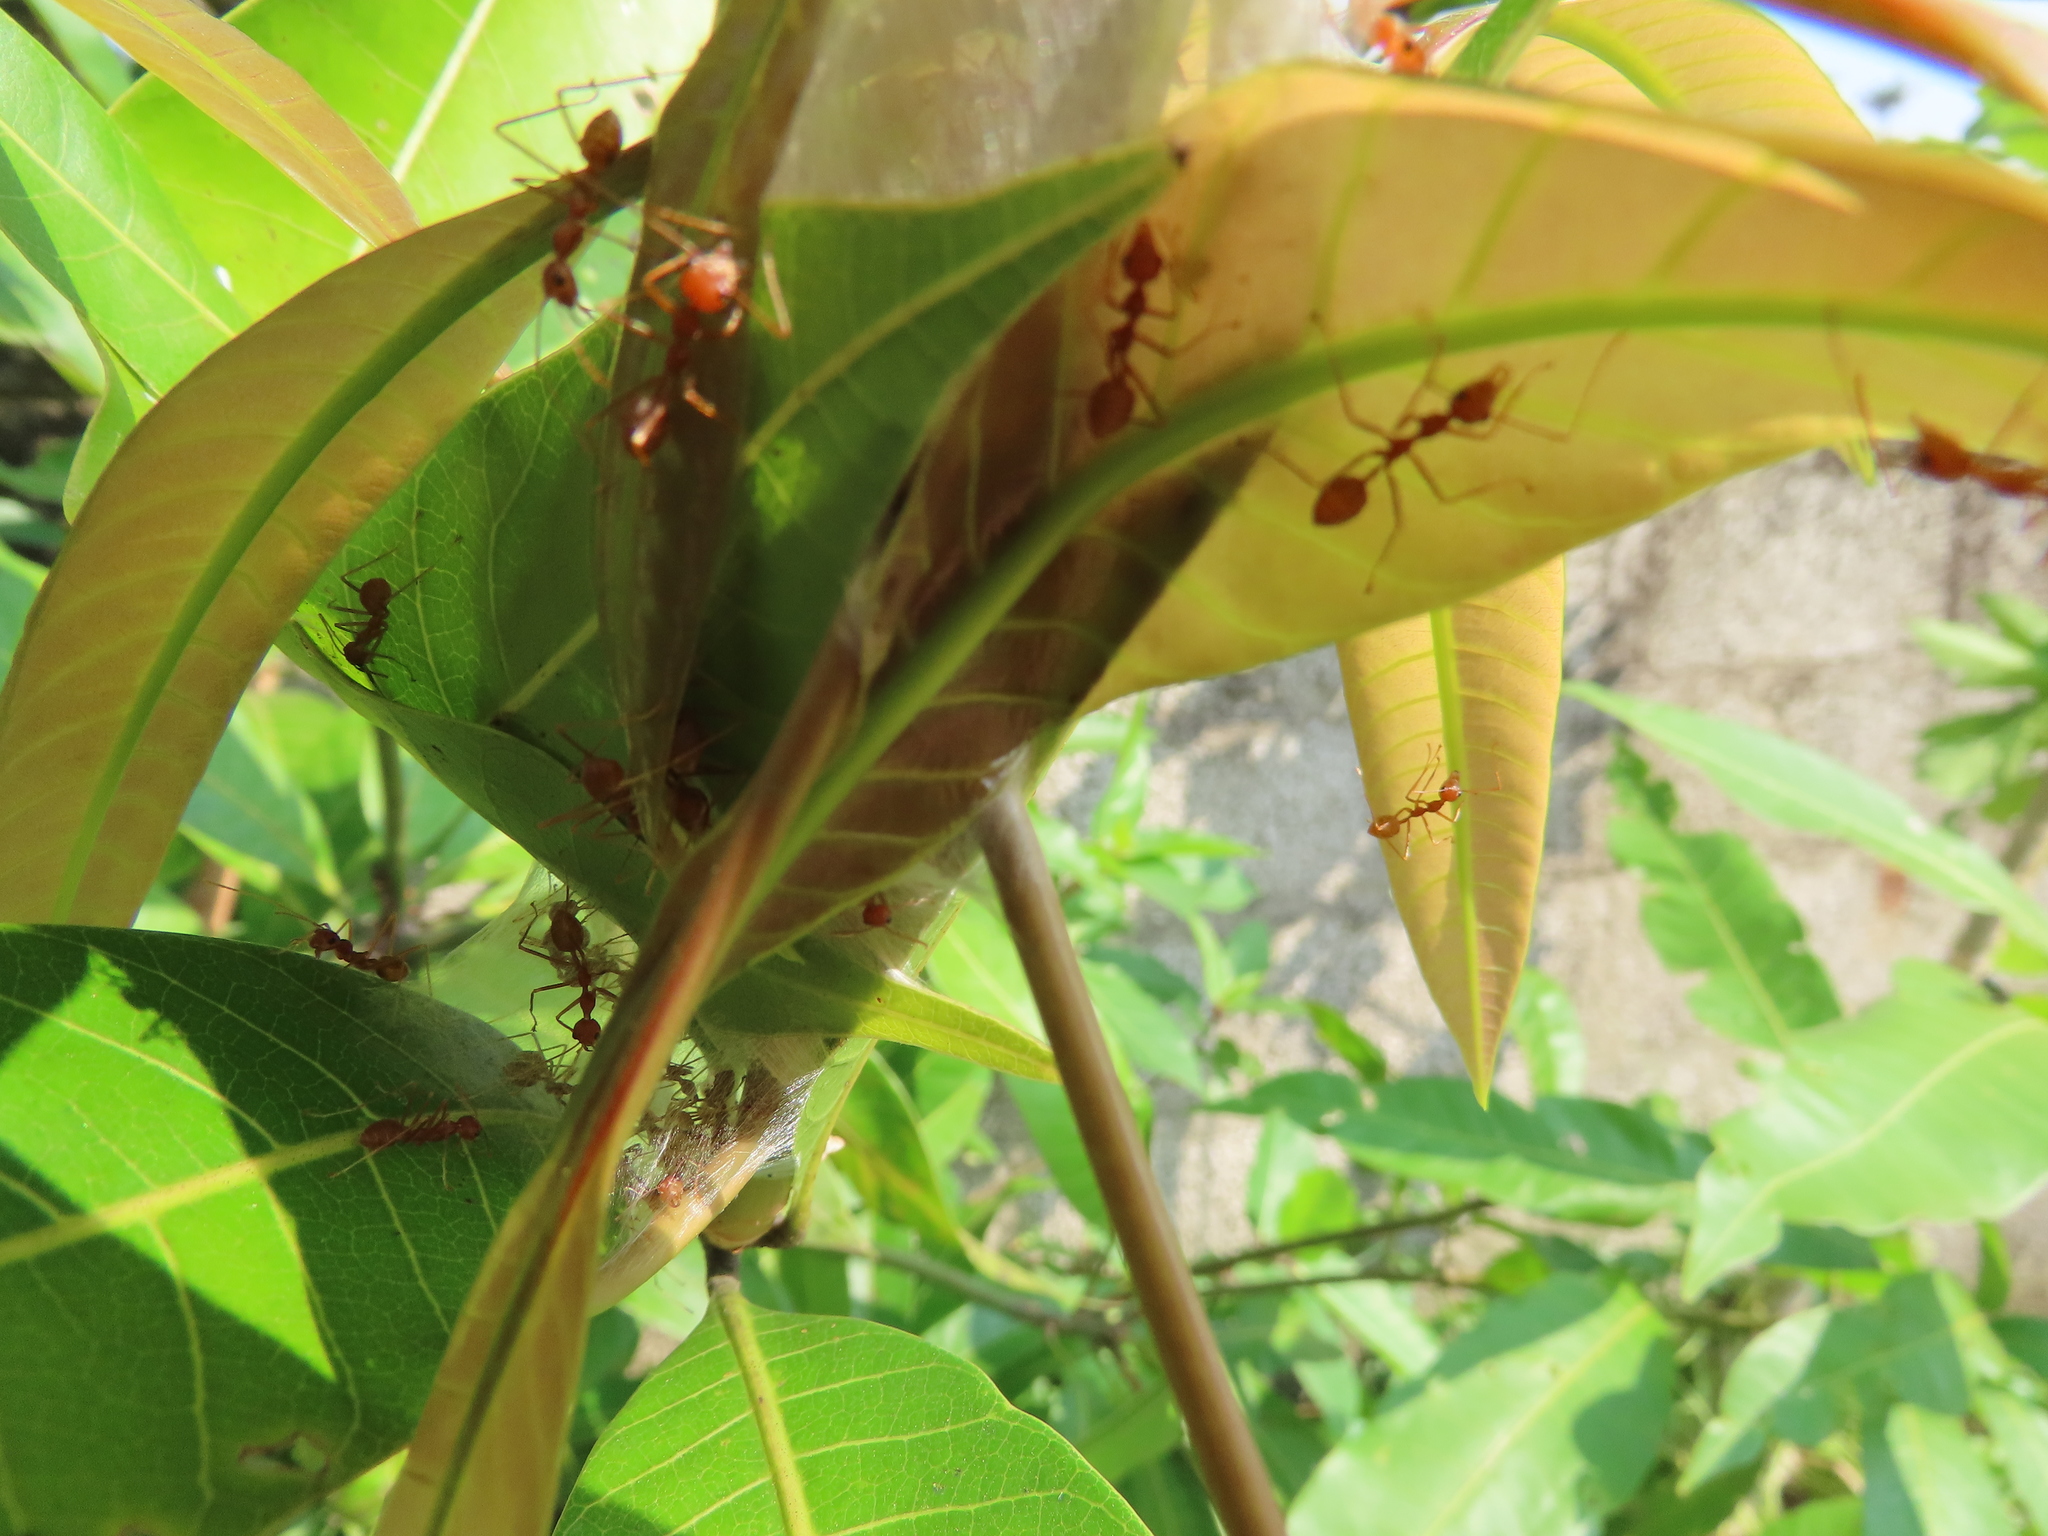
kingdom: Animalia
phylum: Arthropoda
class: Insecta
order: Hymenoptera
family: Formicidae
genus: Oecophylla
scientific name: Oecophylla smaragdina
